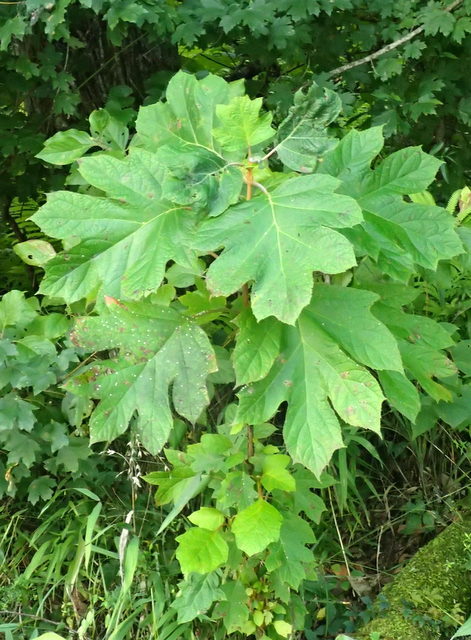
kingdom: Plantae
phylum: Tracheophyta
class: Magnoliopsida
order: Cornales
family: Hydrangeaceae
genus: Hydrangea
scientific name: Hydrangea quercifolia
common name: Oak-leaf hydrangea
